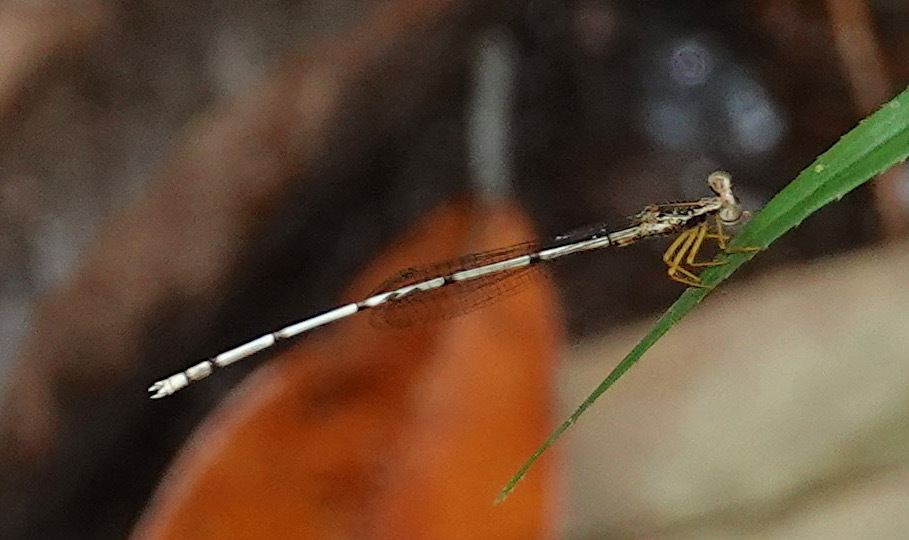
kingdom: Animalia
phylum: Arthropoda
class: Insecta
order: Odonata
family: Platycnemididae
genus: Copera
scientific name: Copera marginipes
